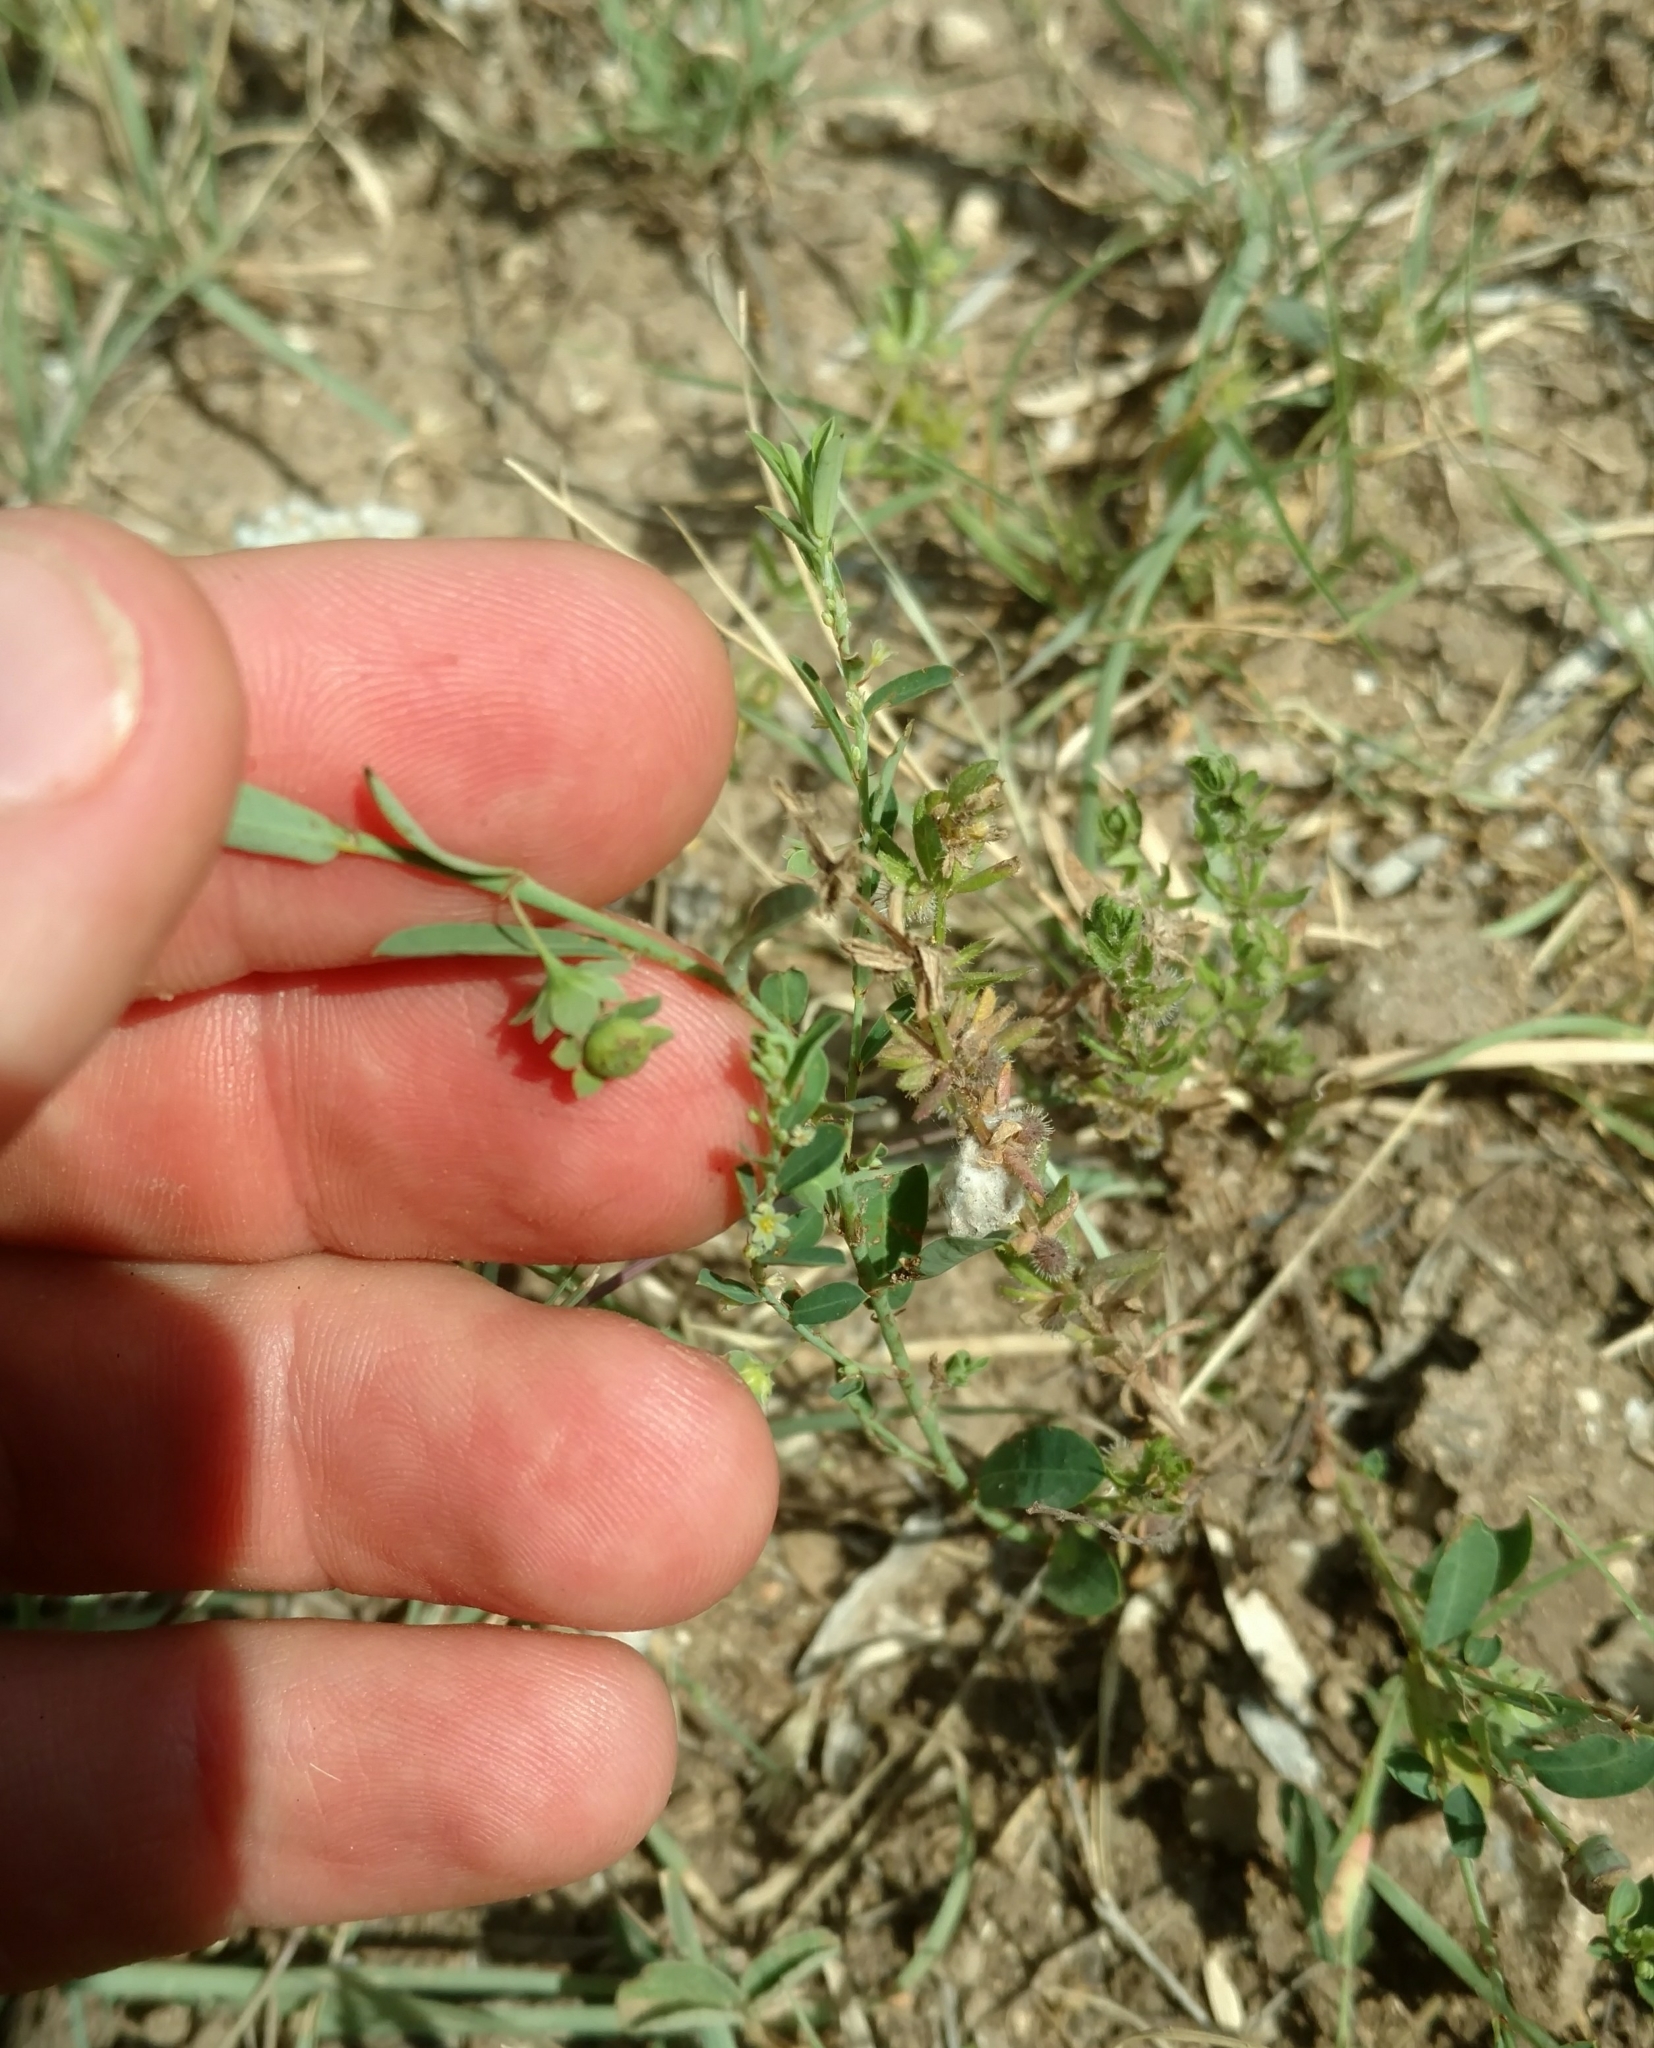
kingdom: Plantae
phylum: Tracheophyta
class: Magnoliopsida
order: Malpighiales
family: Phyllanthaceae
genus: Phyllanthus
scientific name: Phyllanthus polygonoides
